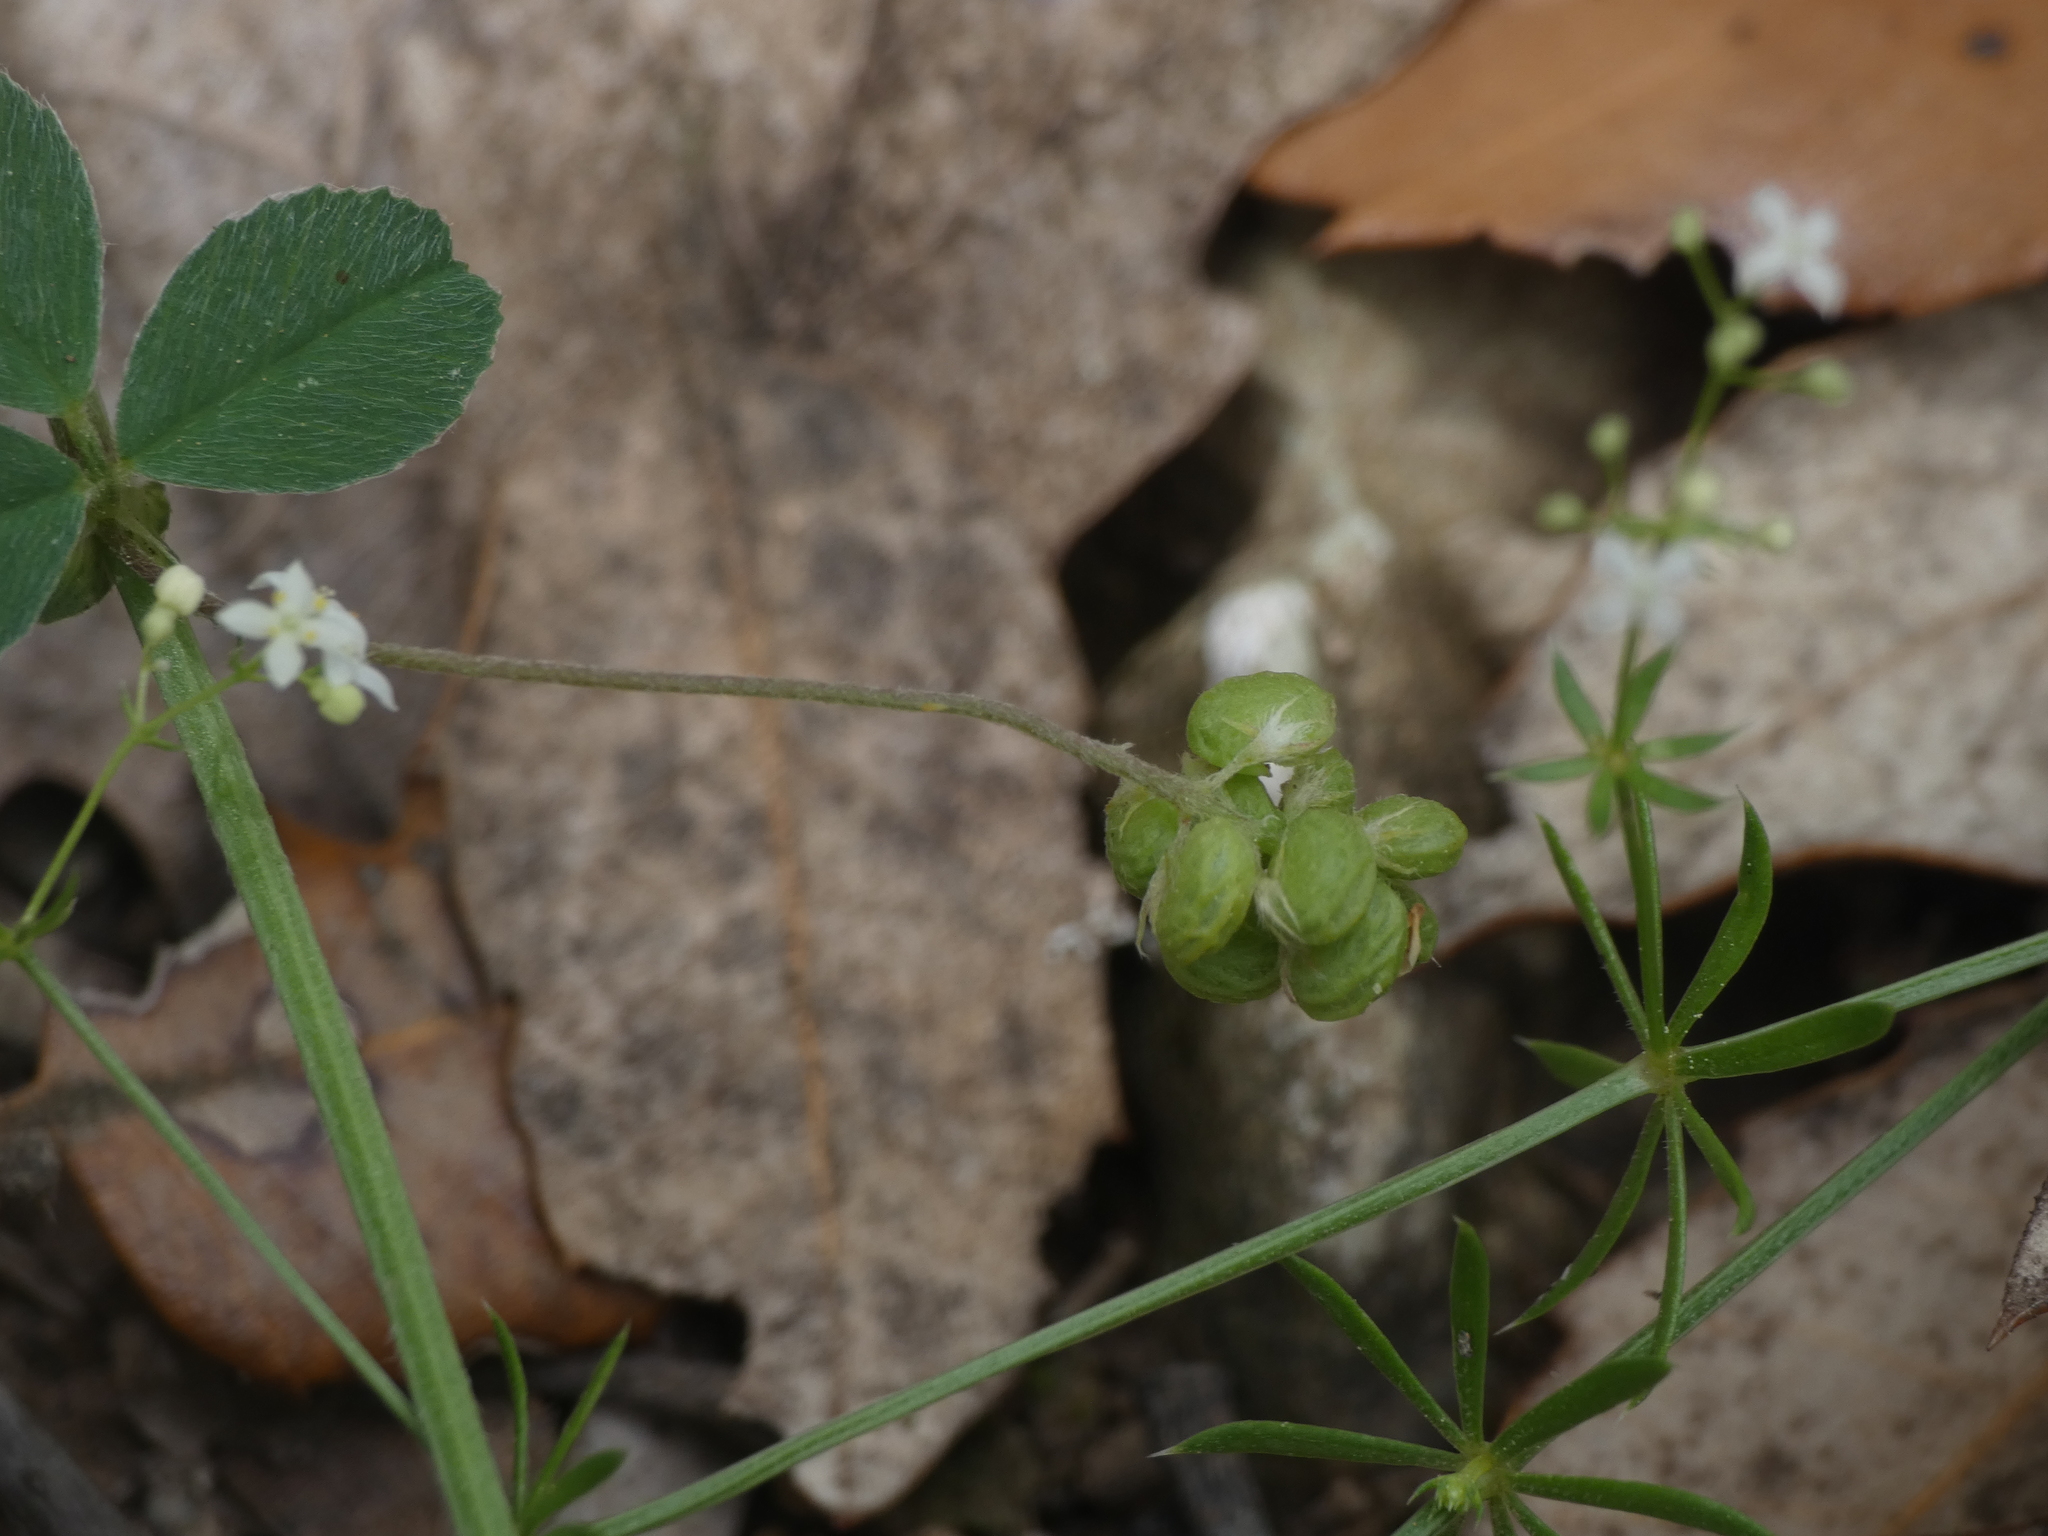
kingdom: Plantae
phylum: Tracheophyta
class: Magnoliopsida
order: Fabales
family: Fabaceae
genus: Medicago
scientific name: Medicago lupulina
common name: Black medick
